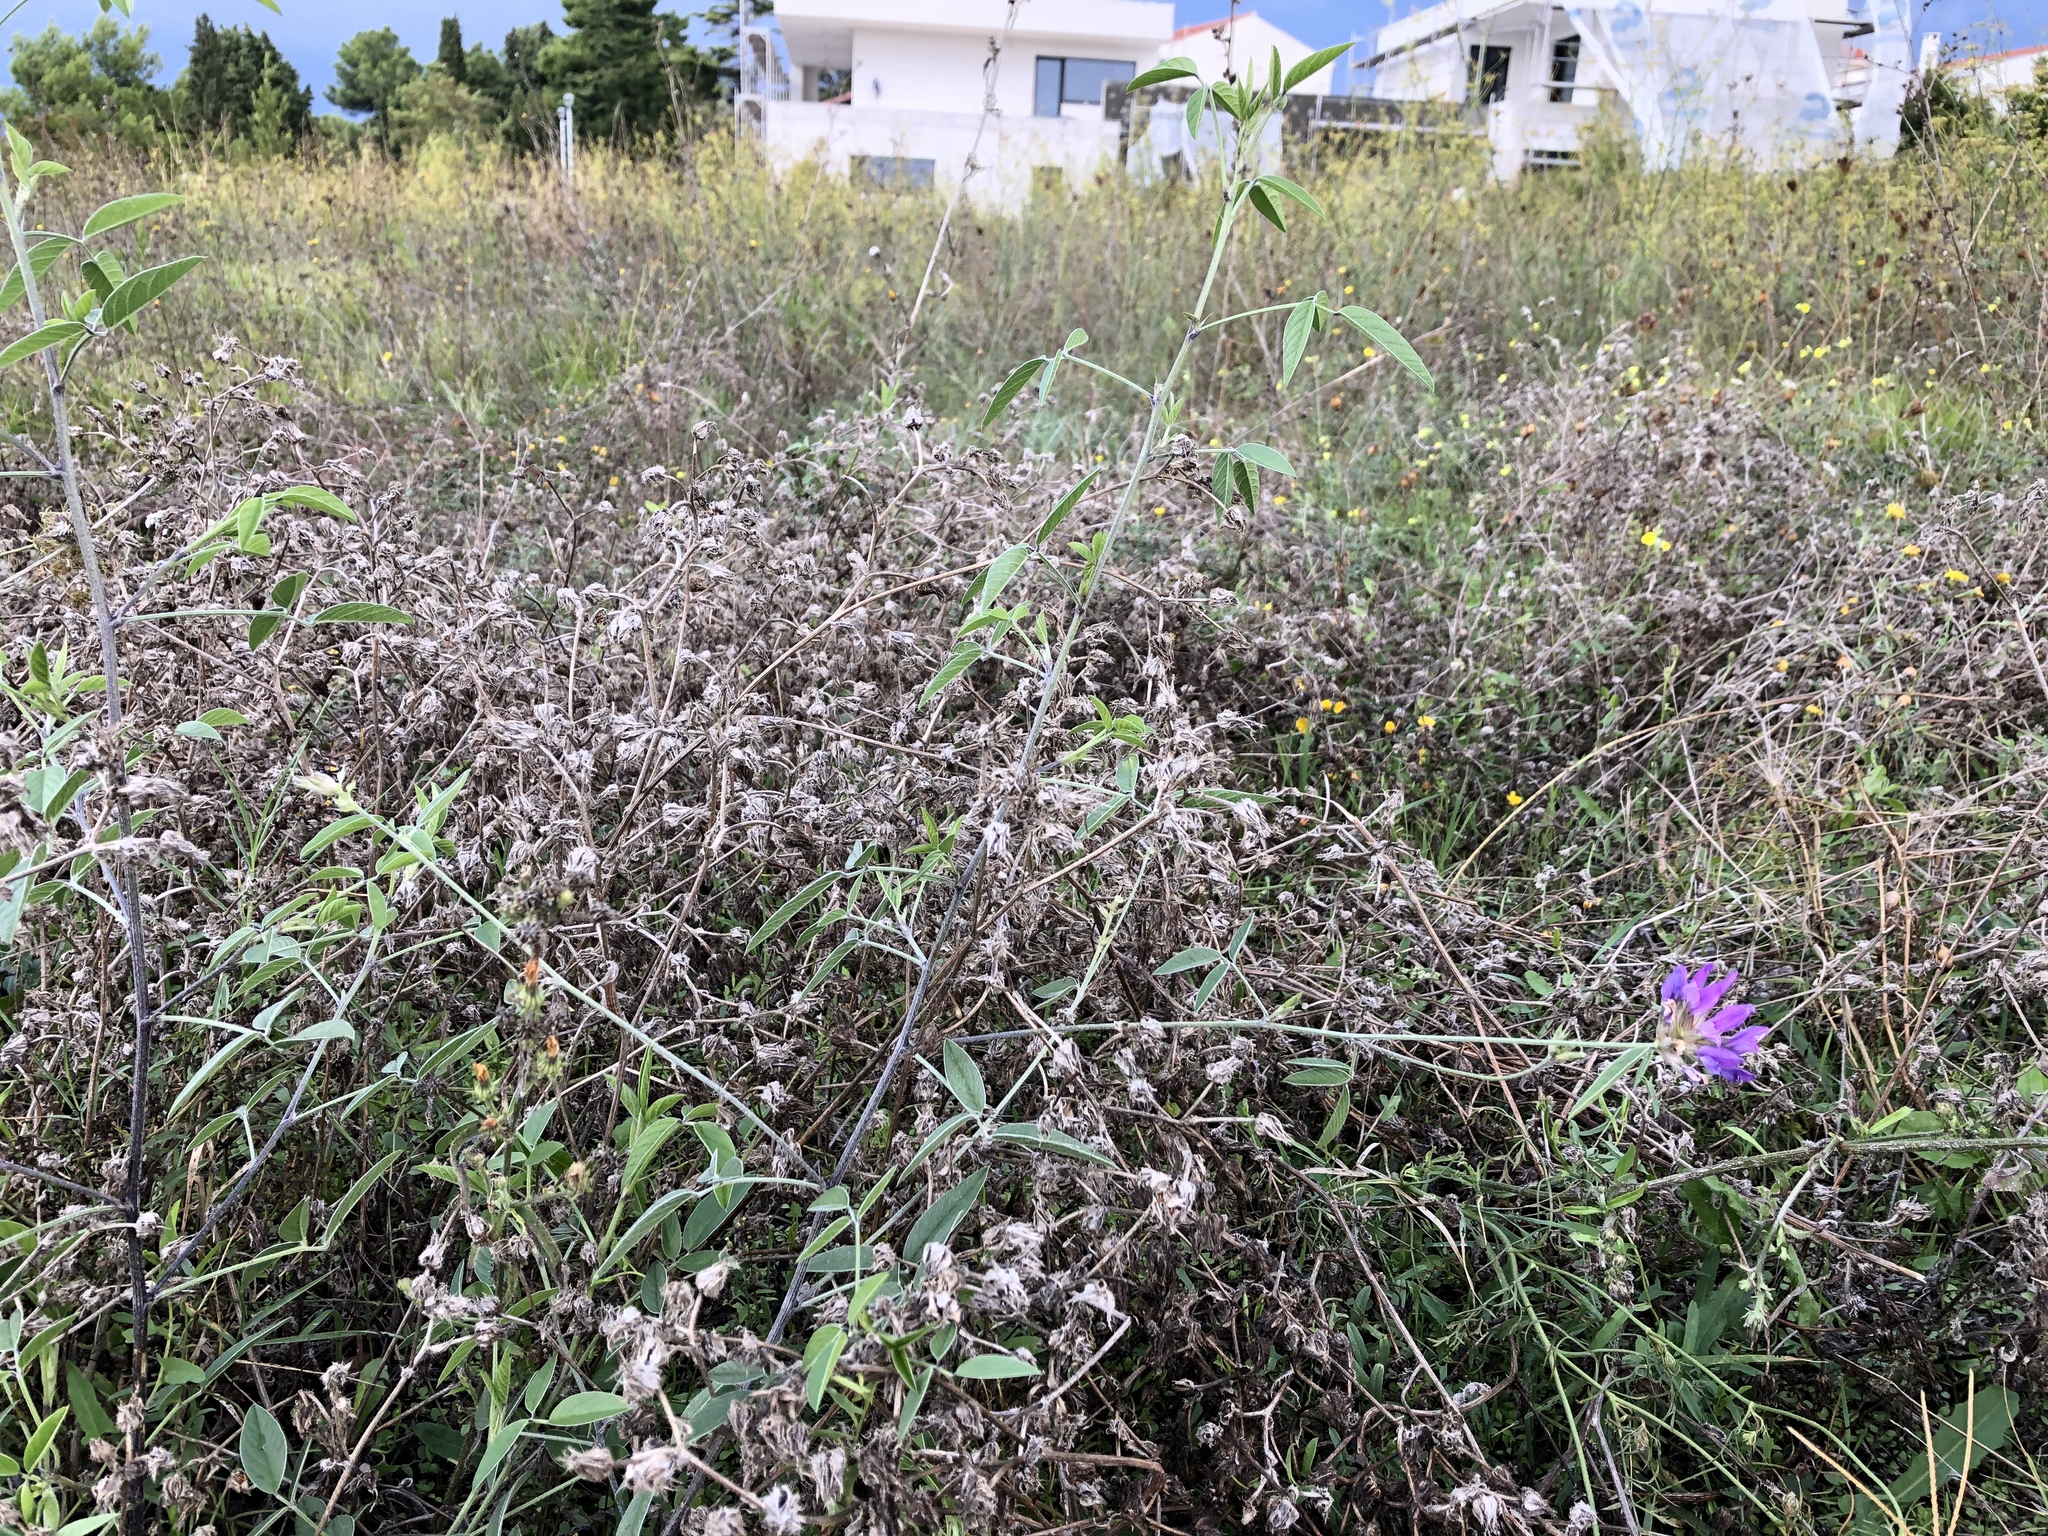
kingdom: Plantae
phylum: Tracheophyta
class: Magnoliopsida
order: Fabales
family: Fabaceae
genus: Bituminaria
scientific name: Bituminaria bituminosa
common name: Arabian pea
